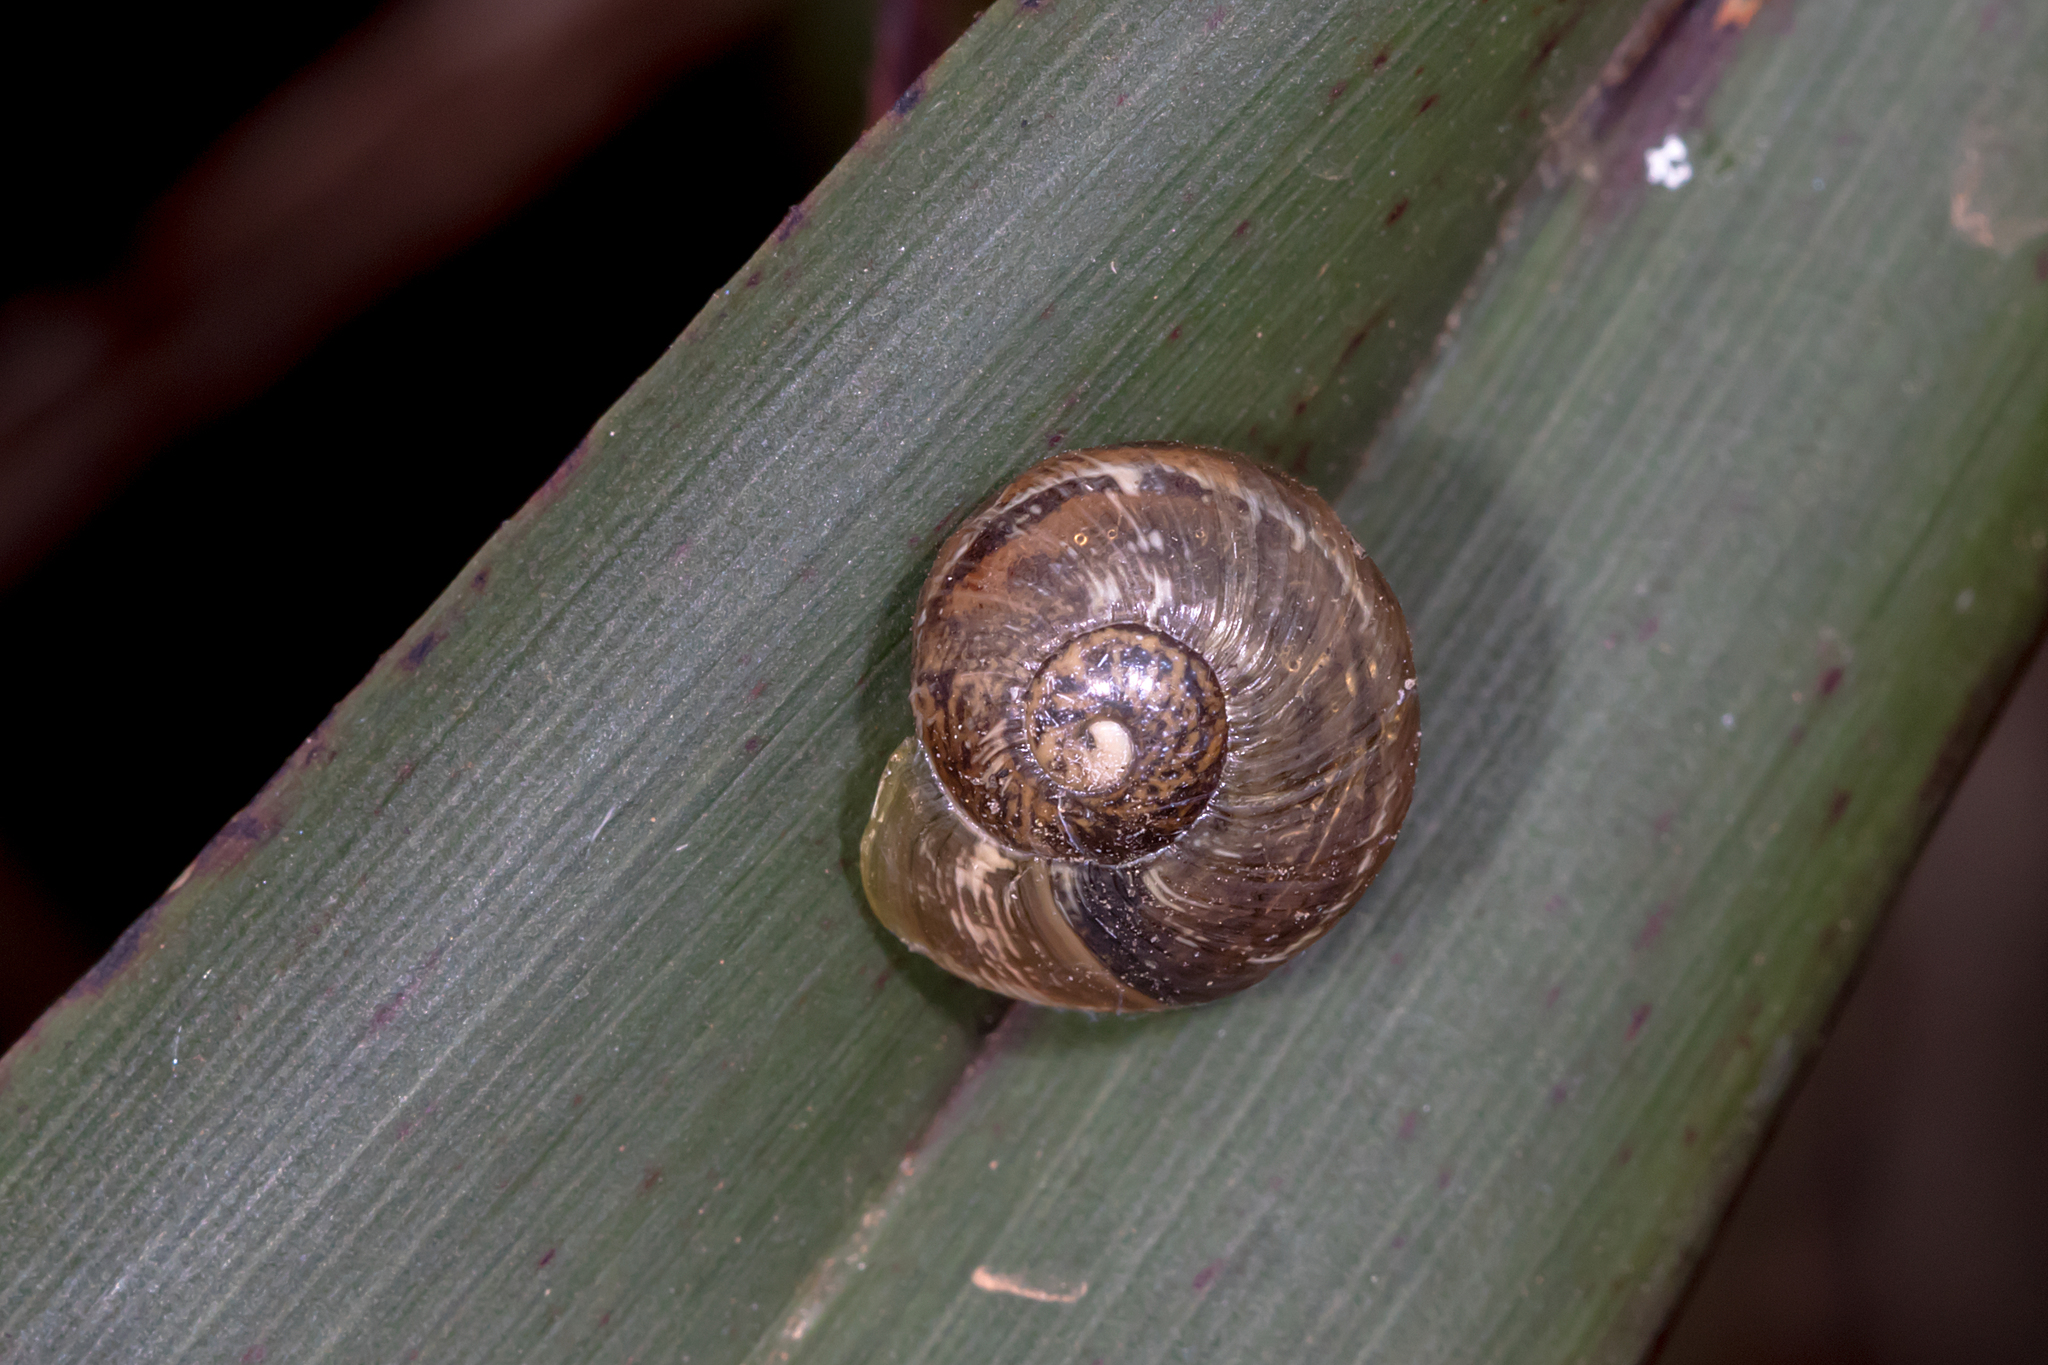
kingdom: Animalia
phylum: Mollusca
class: Gastropoda
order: Stylommatophora
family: Helicidae
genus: Cornu
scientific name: Cornu aspersum
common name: Brown garden snail
